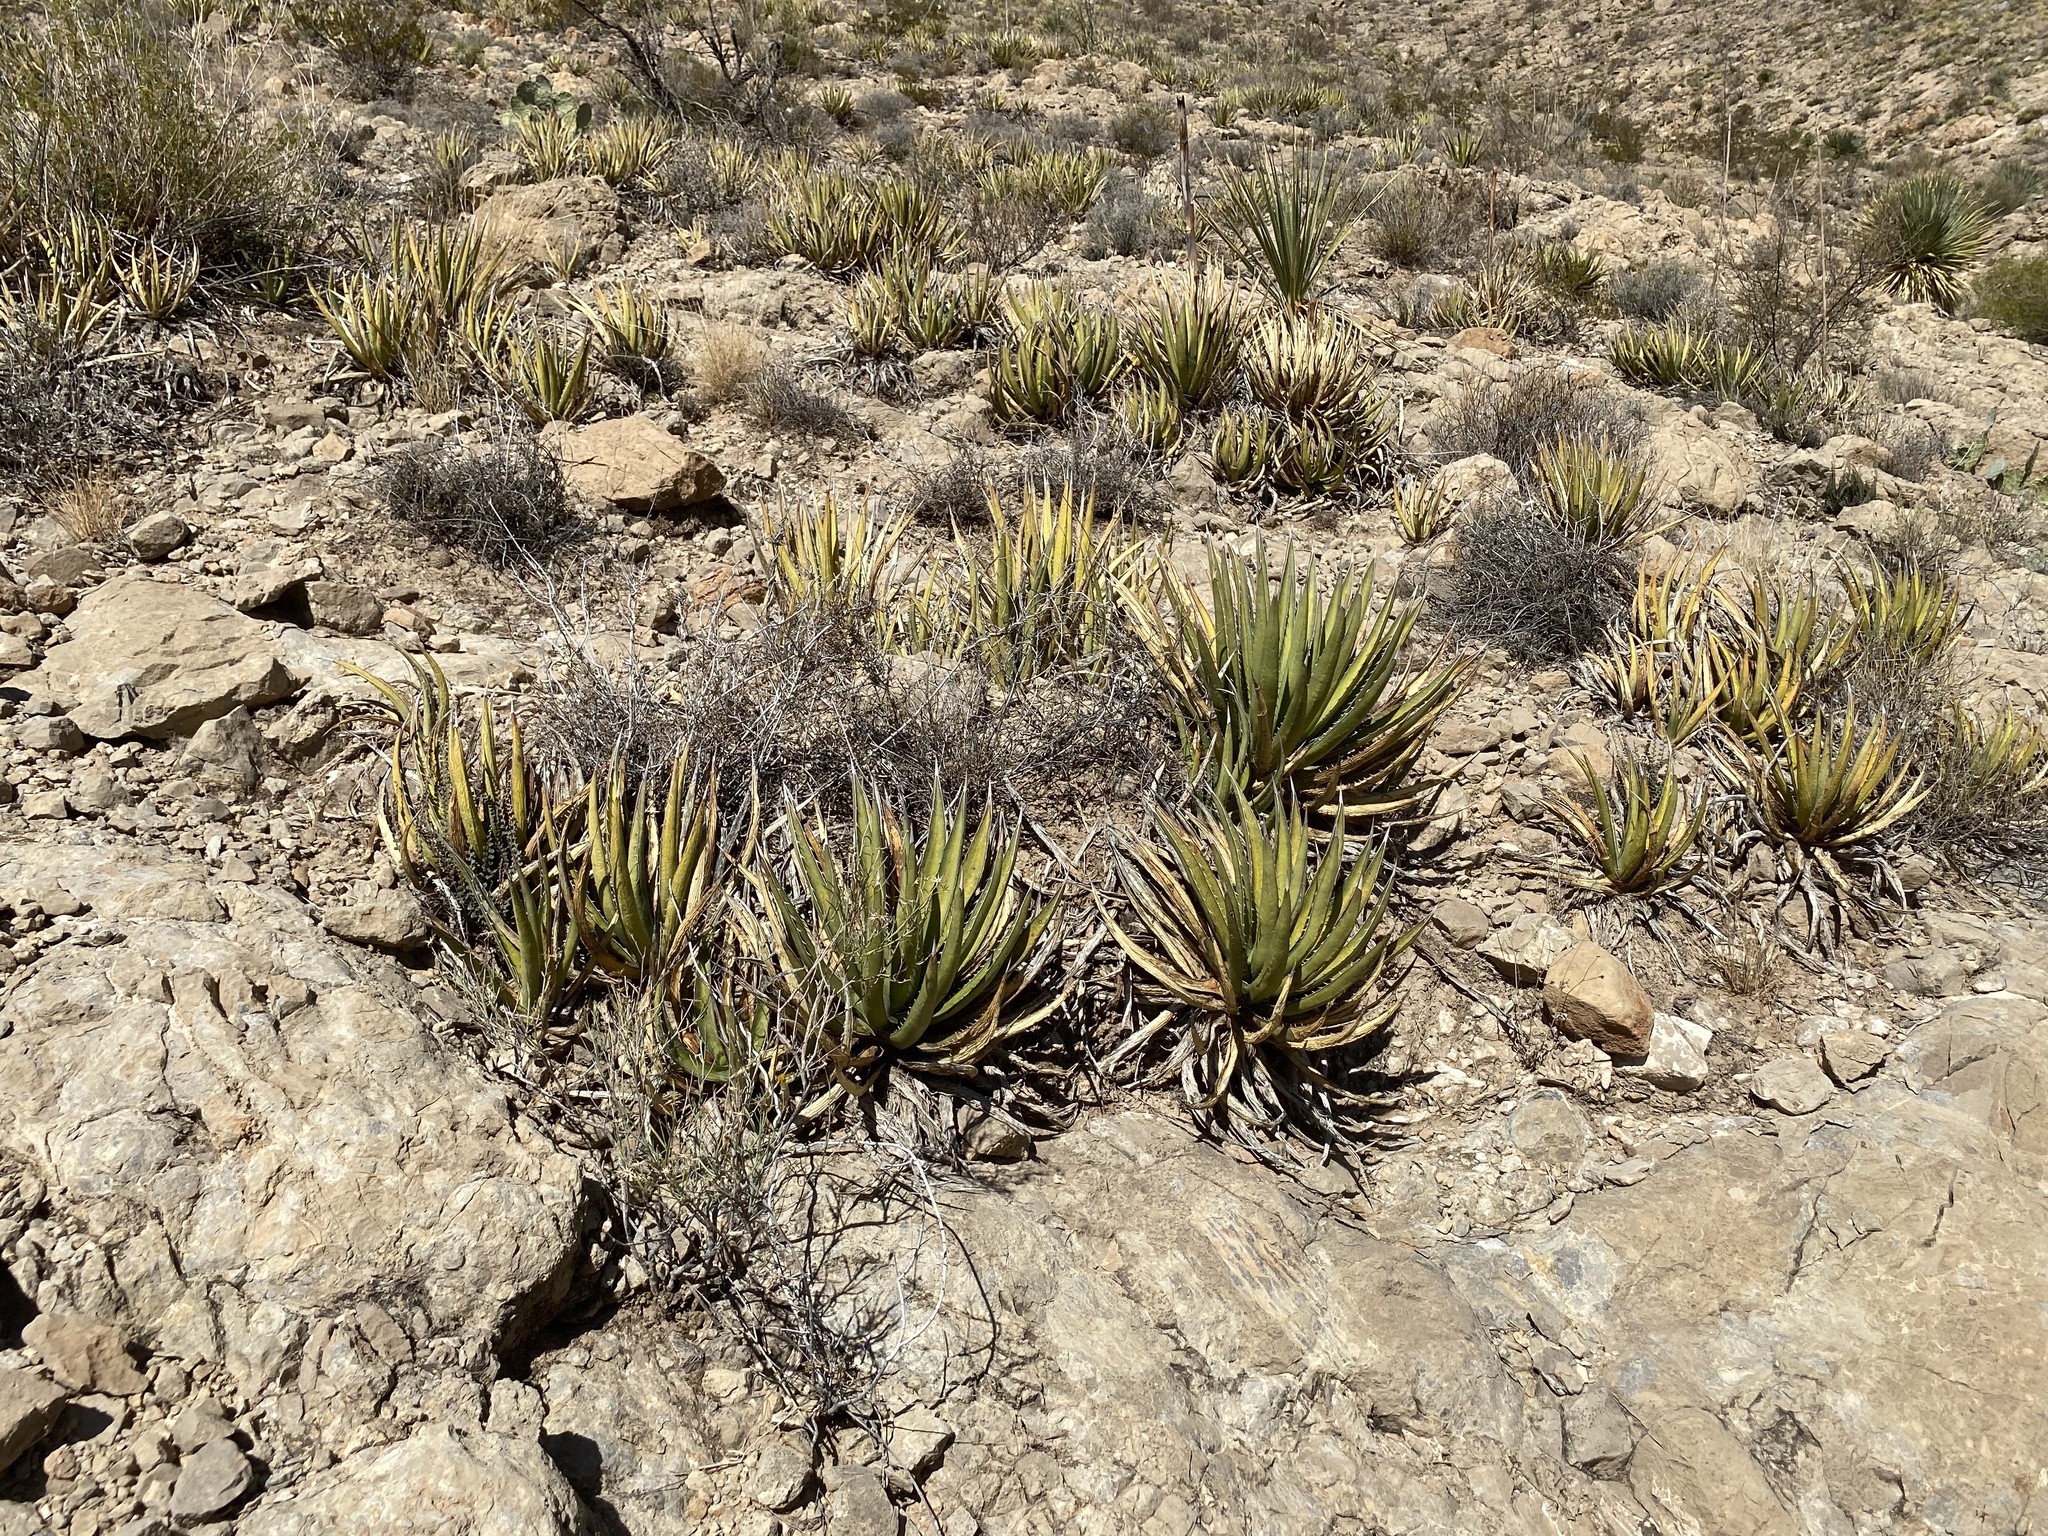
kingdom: Plantae
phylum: Tracheophyta
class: Liliopsida
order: Asparagales
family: Asparagaceae
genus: Agave
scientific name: Agave lechuguilla
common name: Lecheguilla agave
